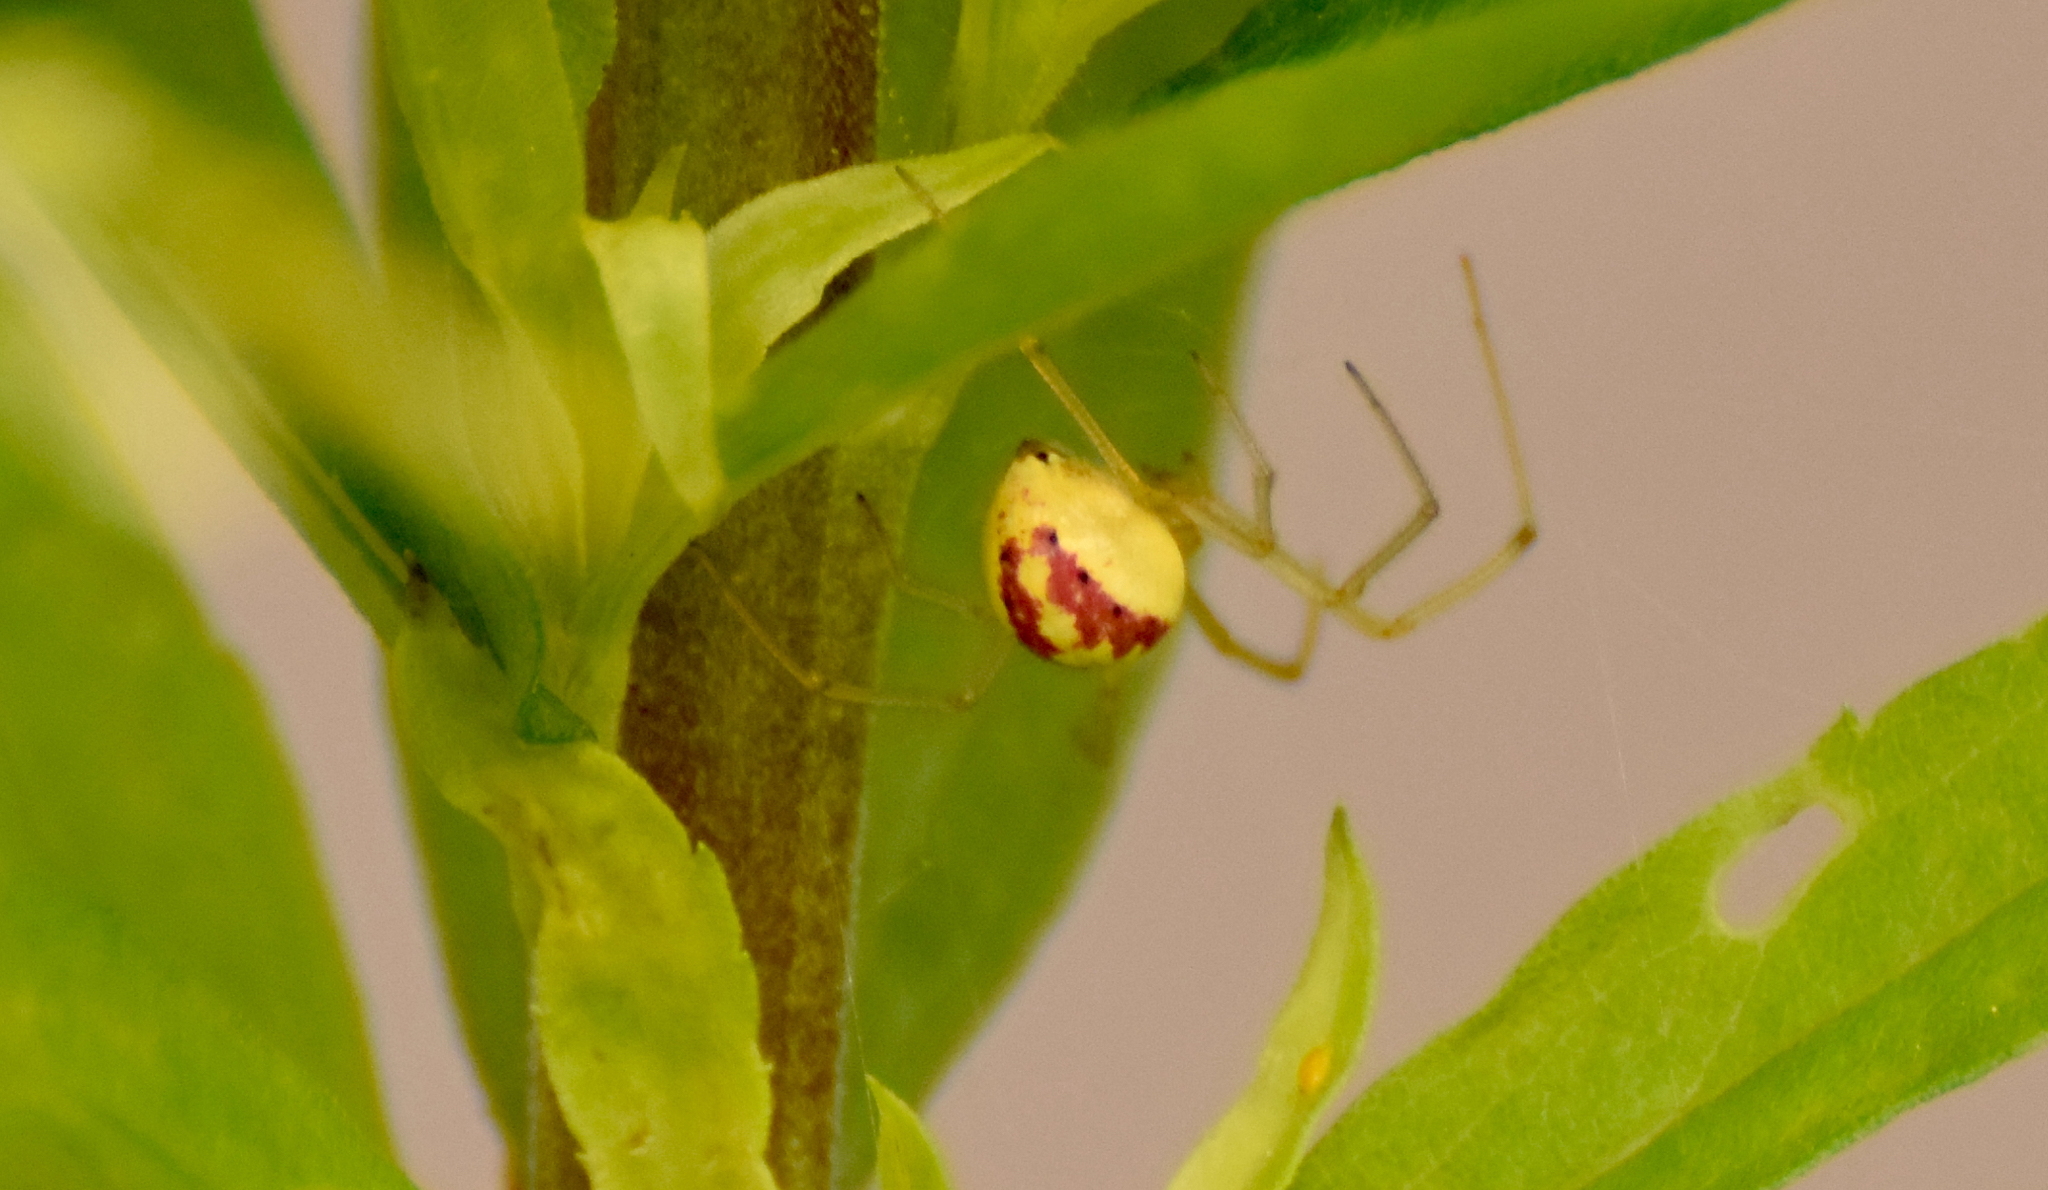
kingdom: Animalia
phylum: Arthropoda
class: Arachnida
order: Araneae
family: Theridiidae
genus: Enoplognatha
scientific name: Enoplognatha ovata
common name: Common candy-striped spider
